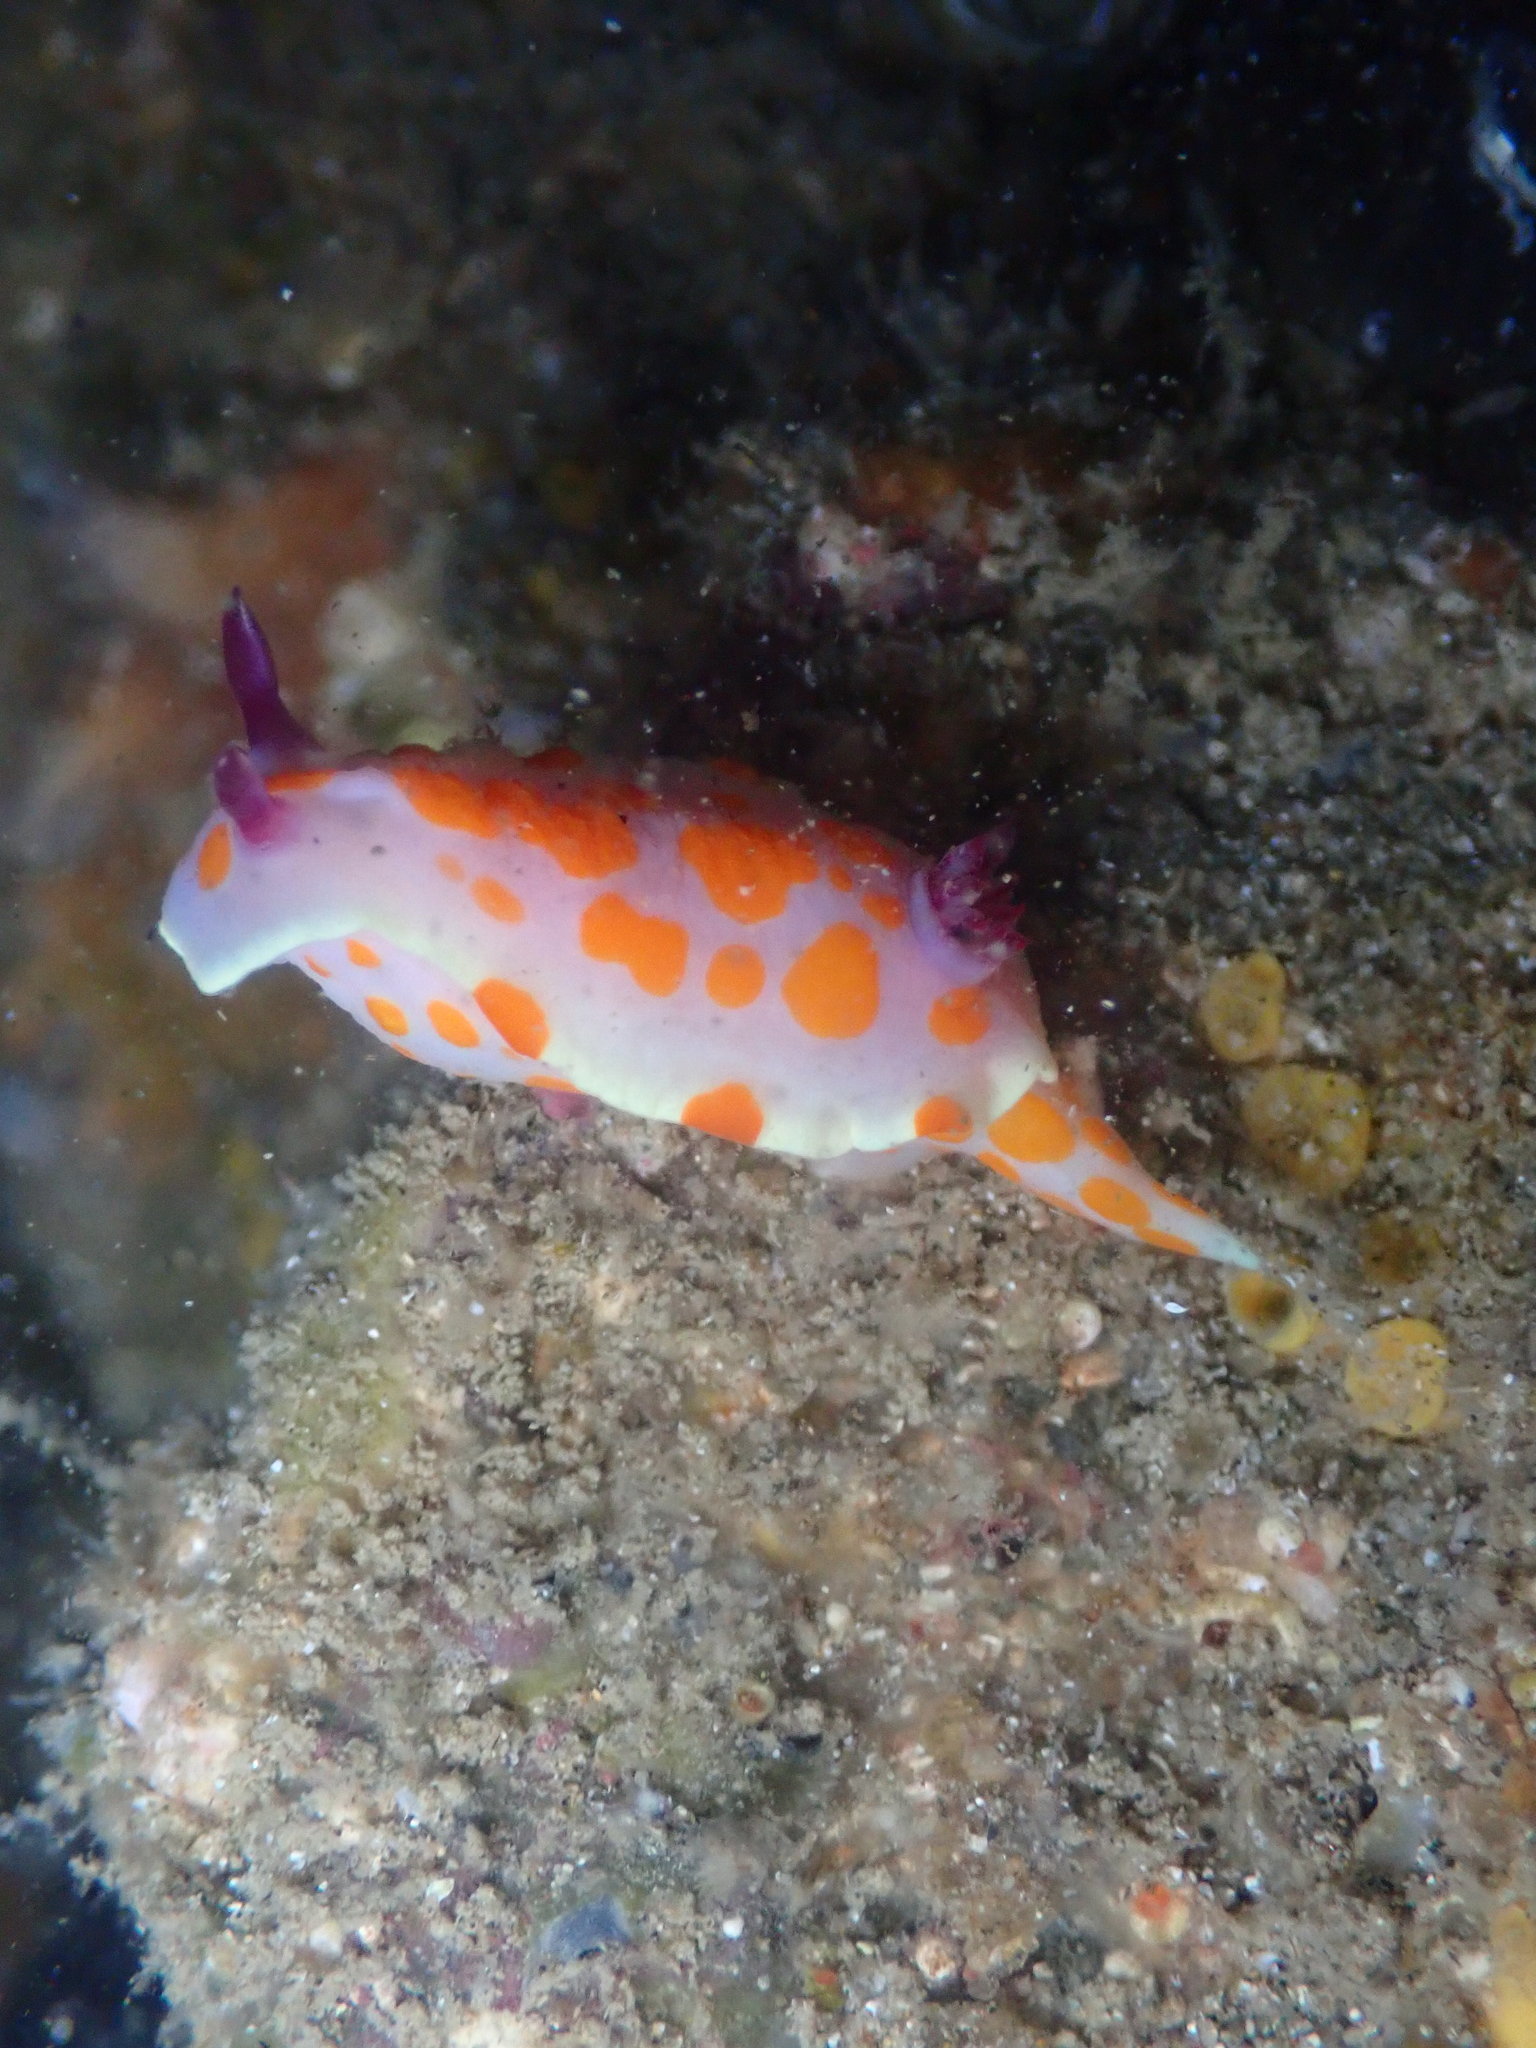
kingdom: Animalia
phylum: Mollusca
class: Gastropoda
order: Nudibranchia
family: Chromodorididae
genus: Ceratosoma
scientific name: Ceratosoma amoenum
